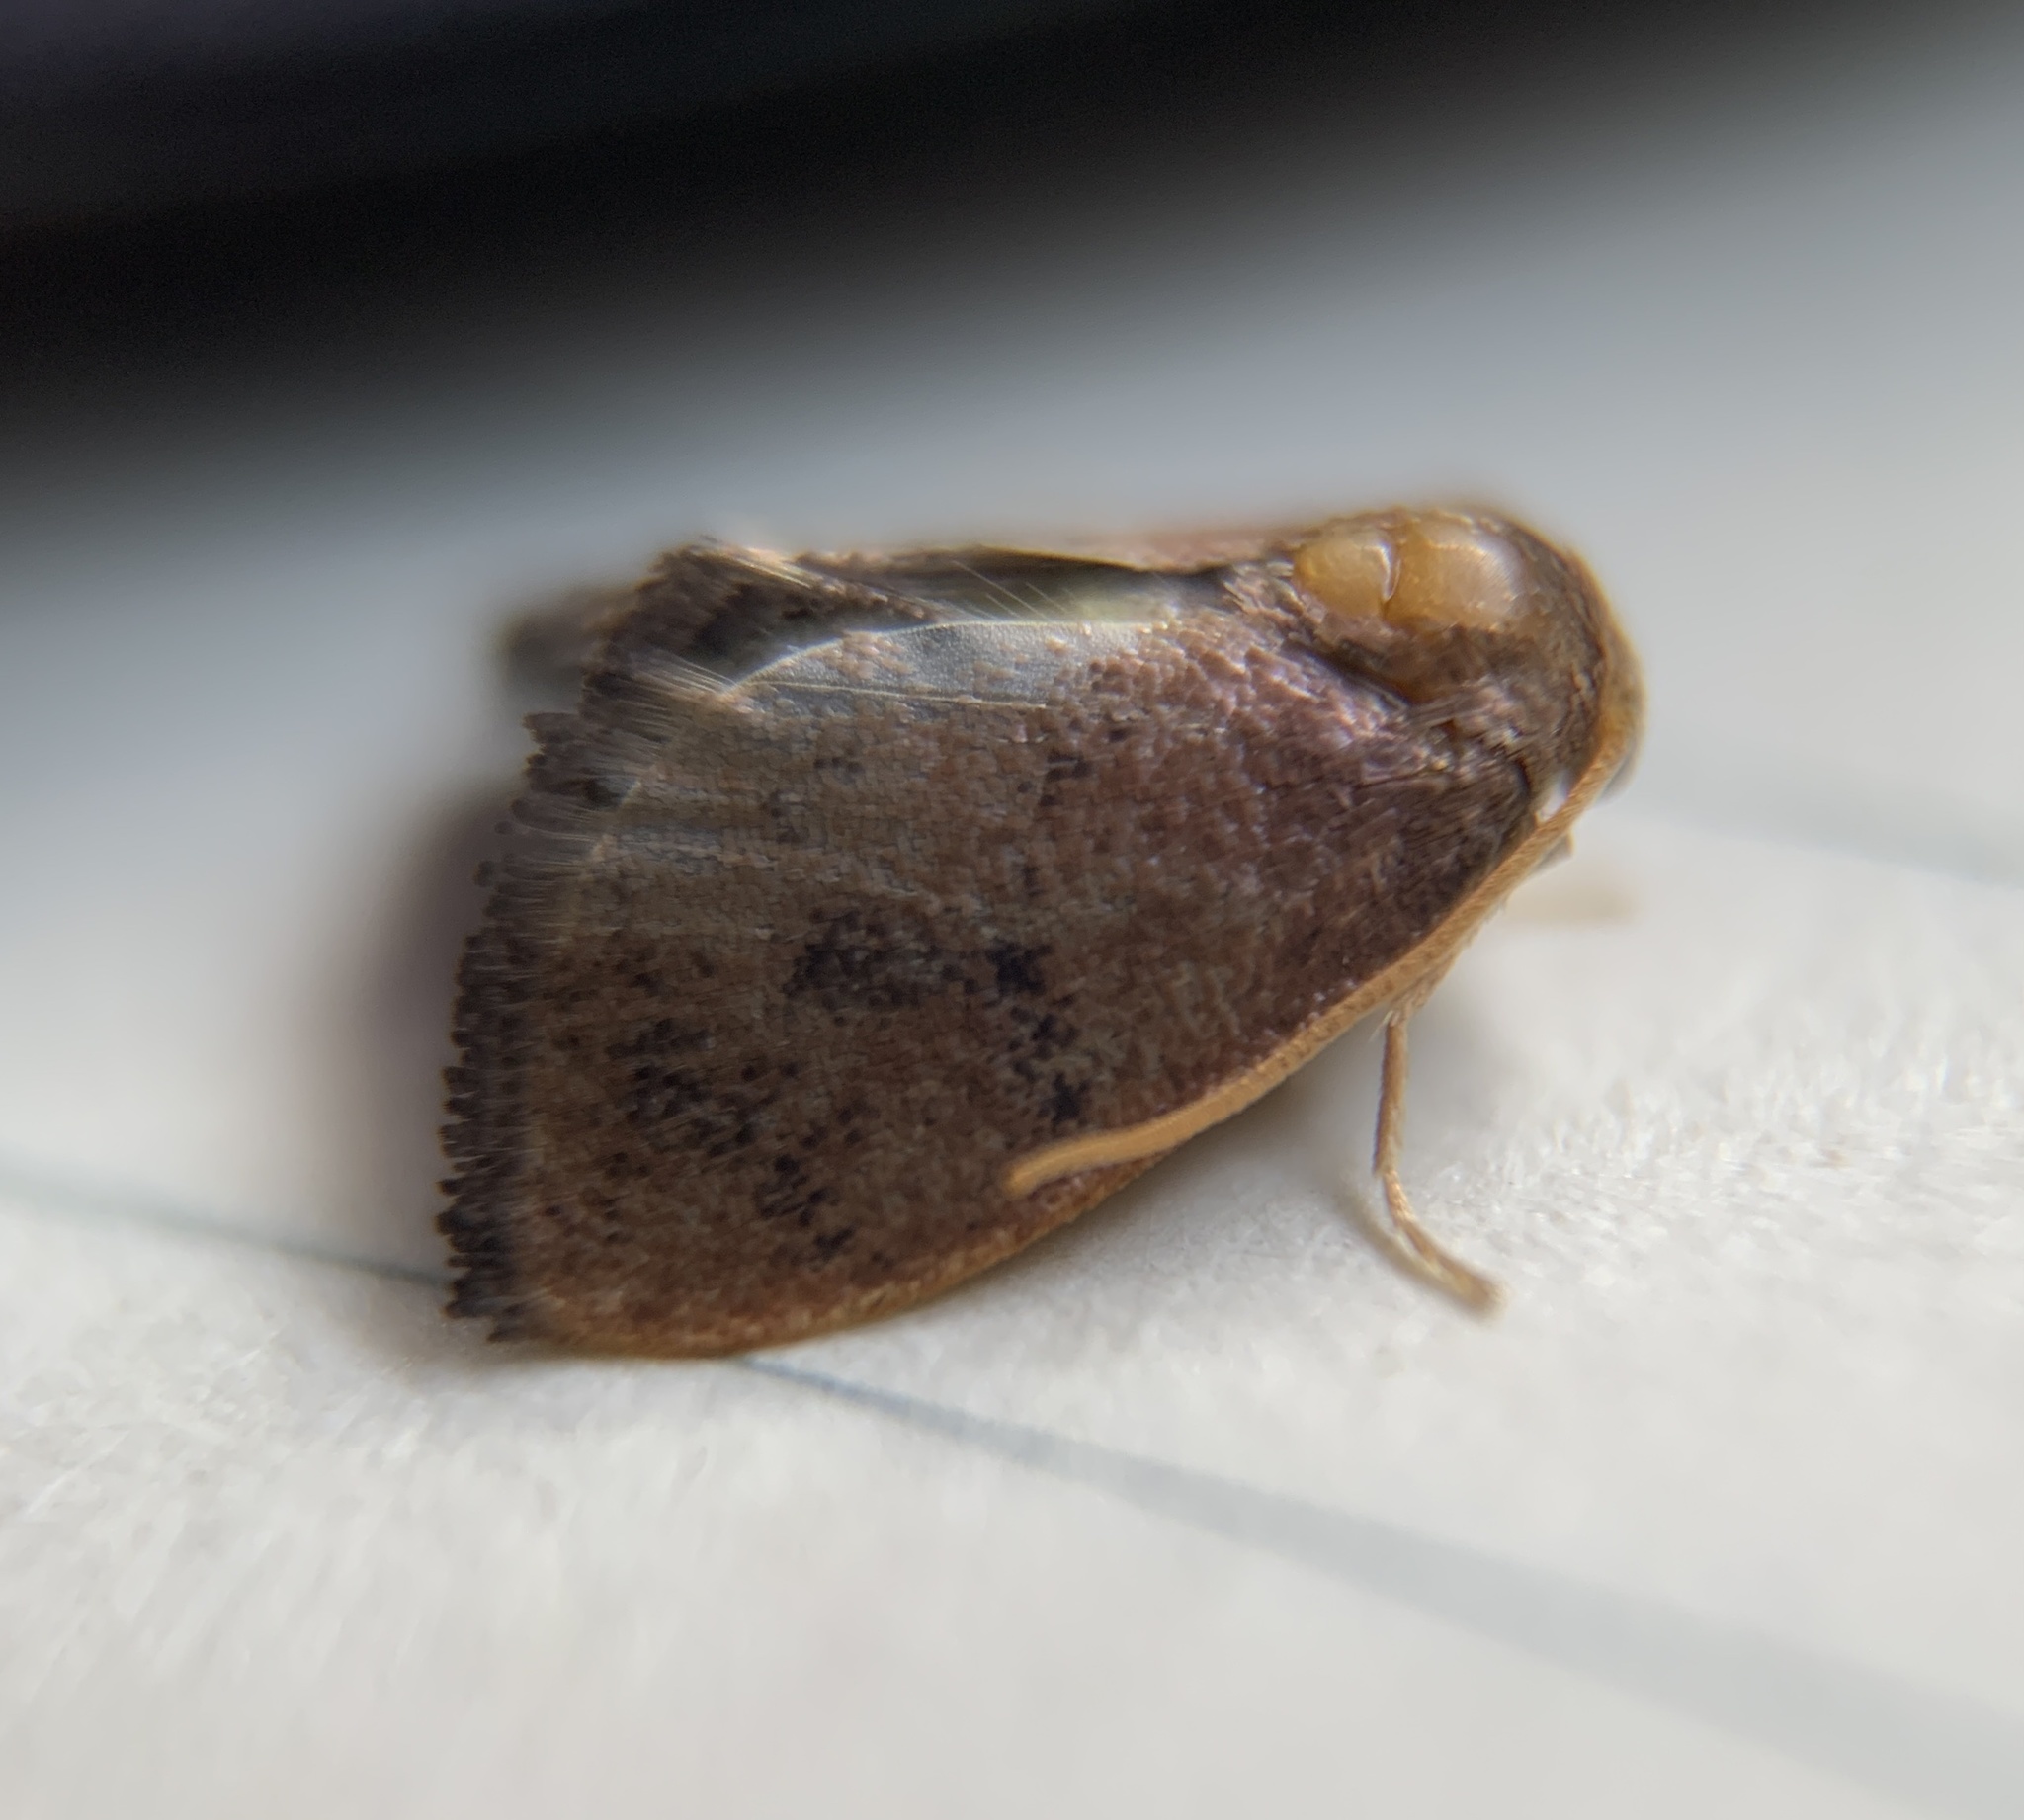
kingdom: Animalia
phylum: Arthropoda
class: Insecta
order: Lepidoptera
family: Limacodidae
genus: Heterogenea
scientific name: Heterogenea shurtleffi
